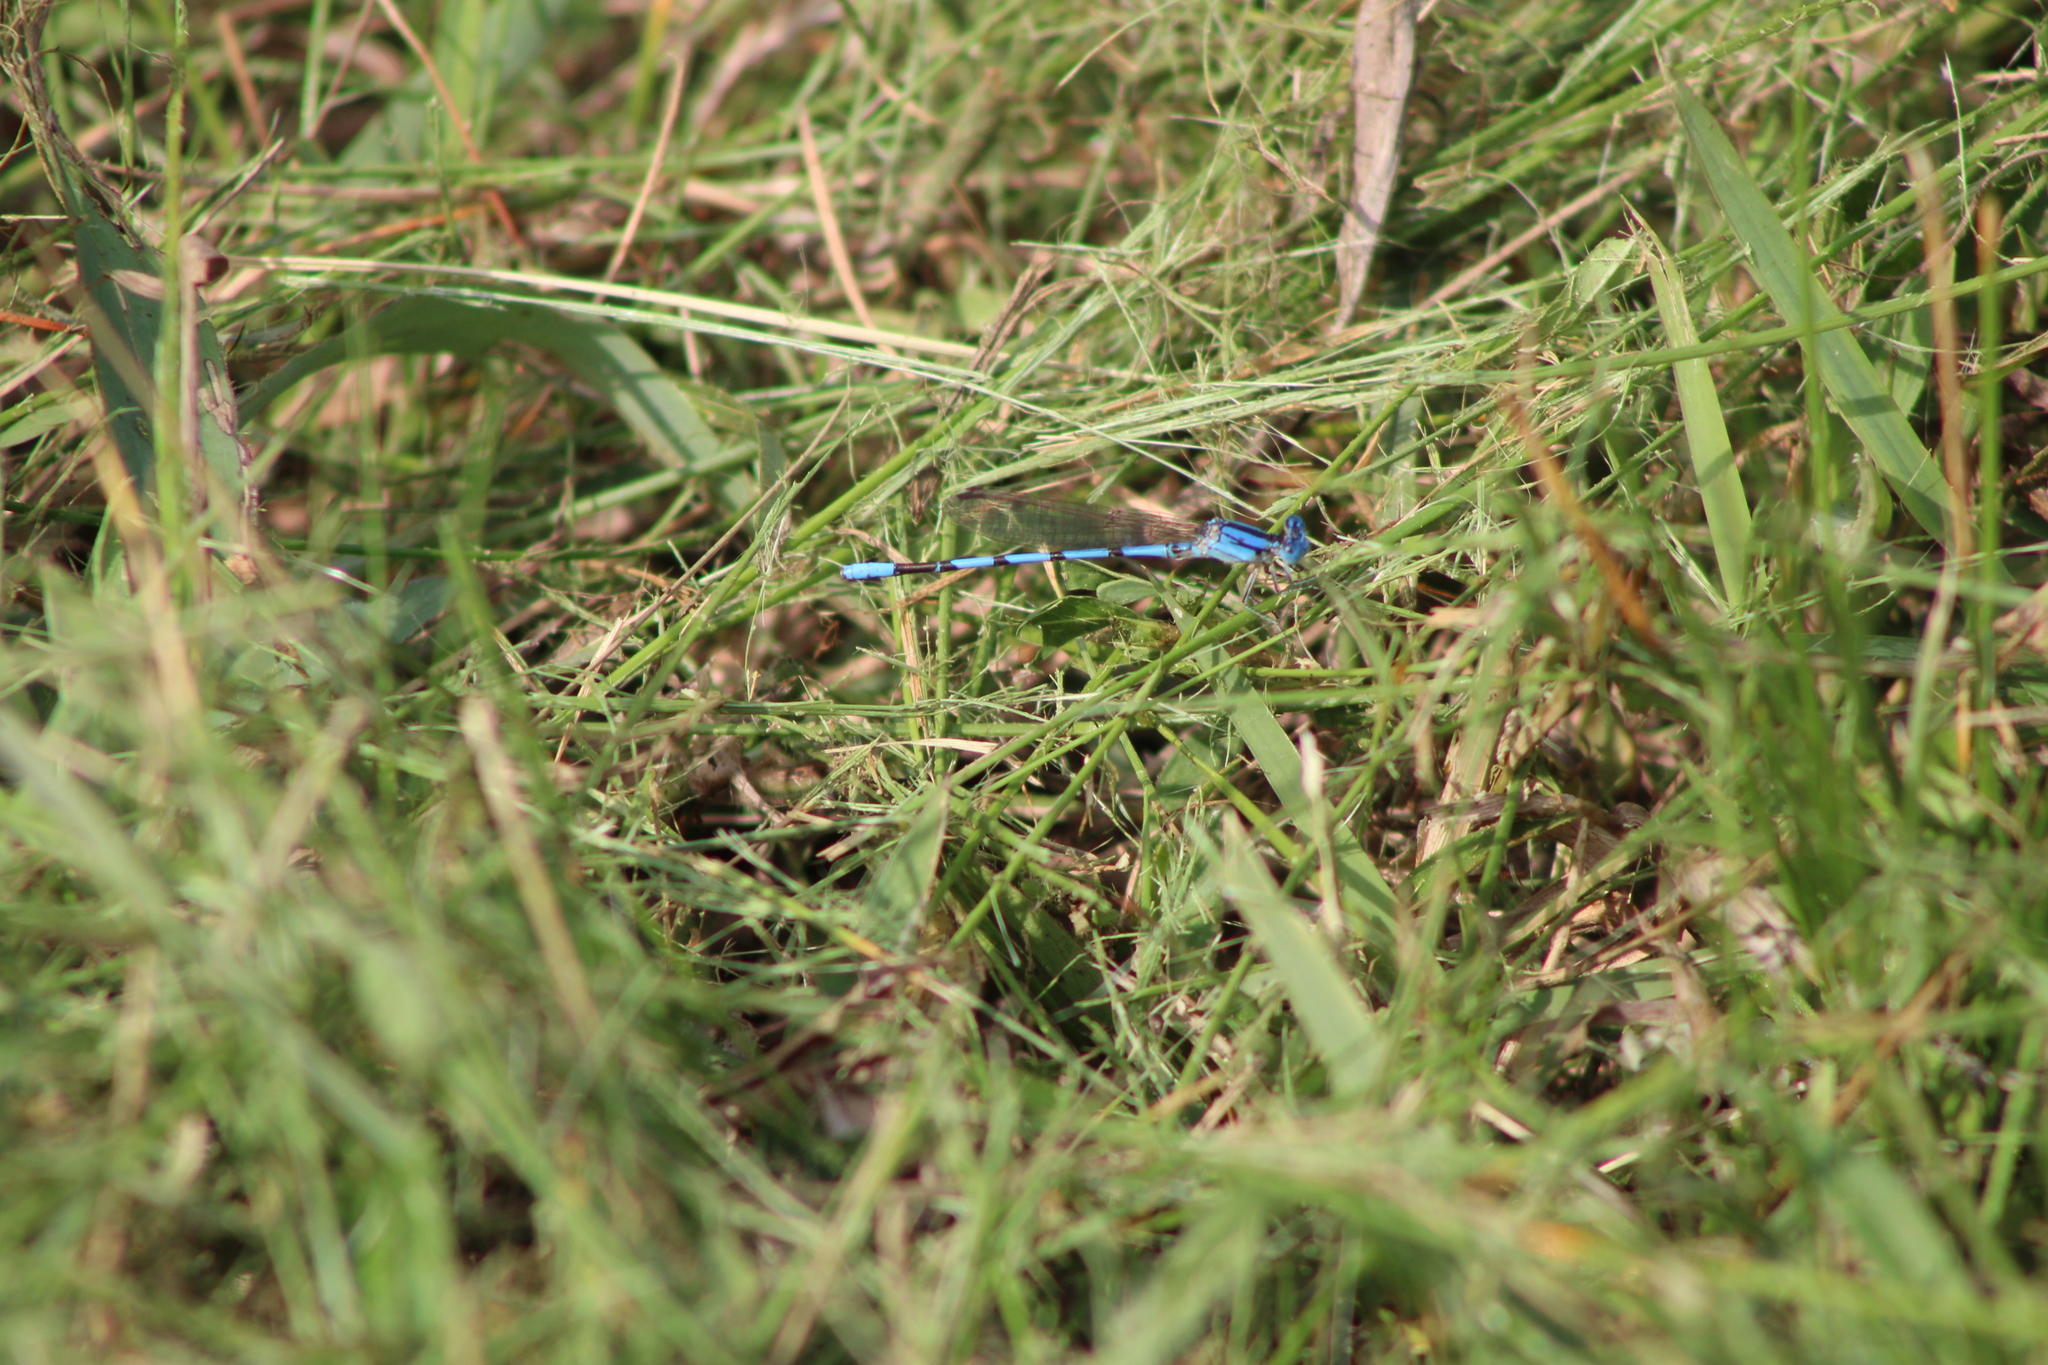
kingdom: Animalia
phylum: Arthropoda
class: Insecta
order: Odonata
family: Coenagrionidae
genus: Argia
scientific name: Argia nahuana
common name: Aztec dancer
